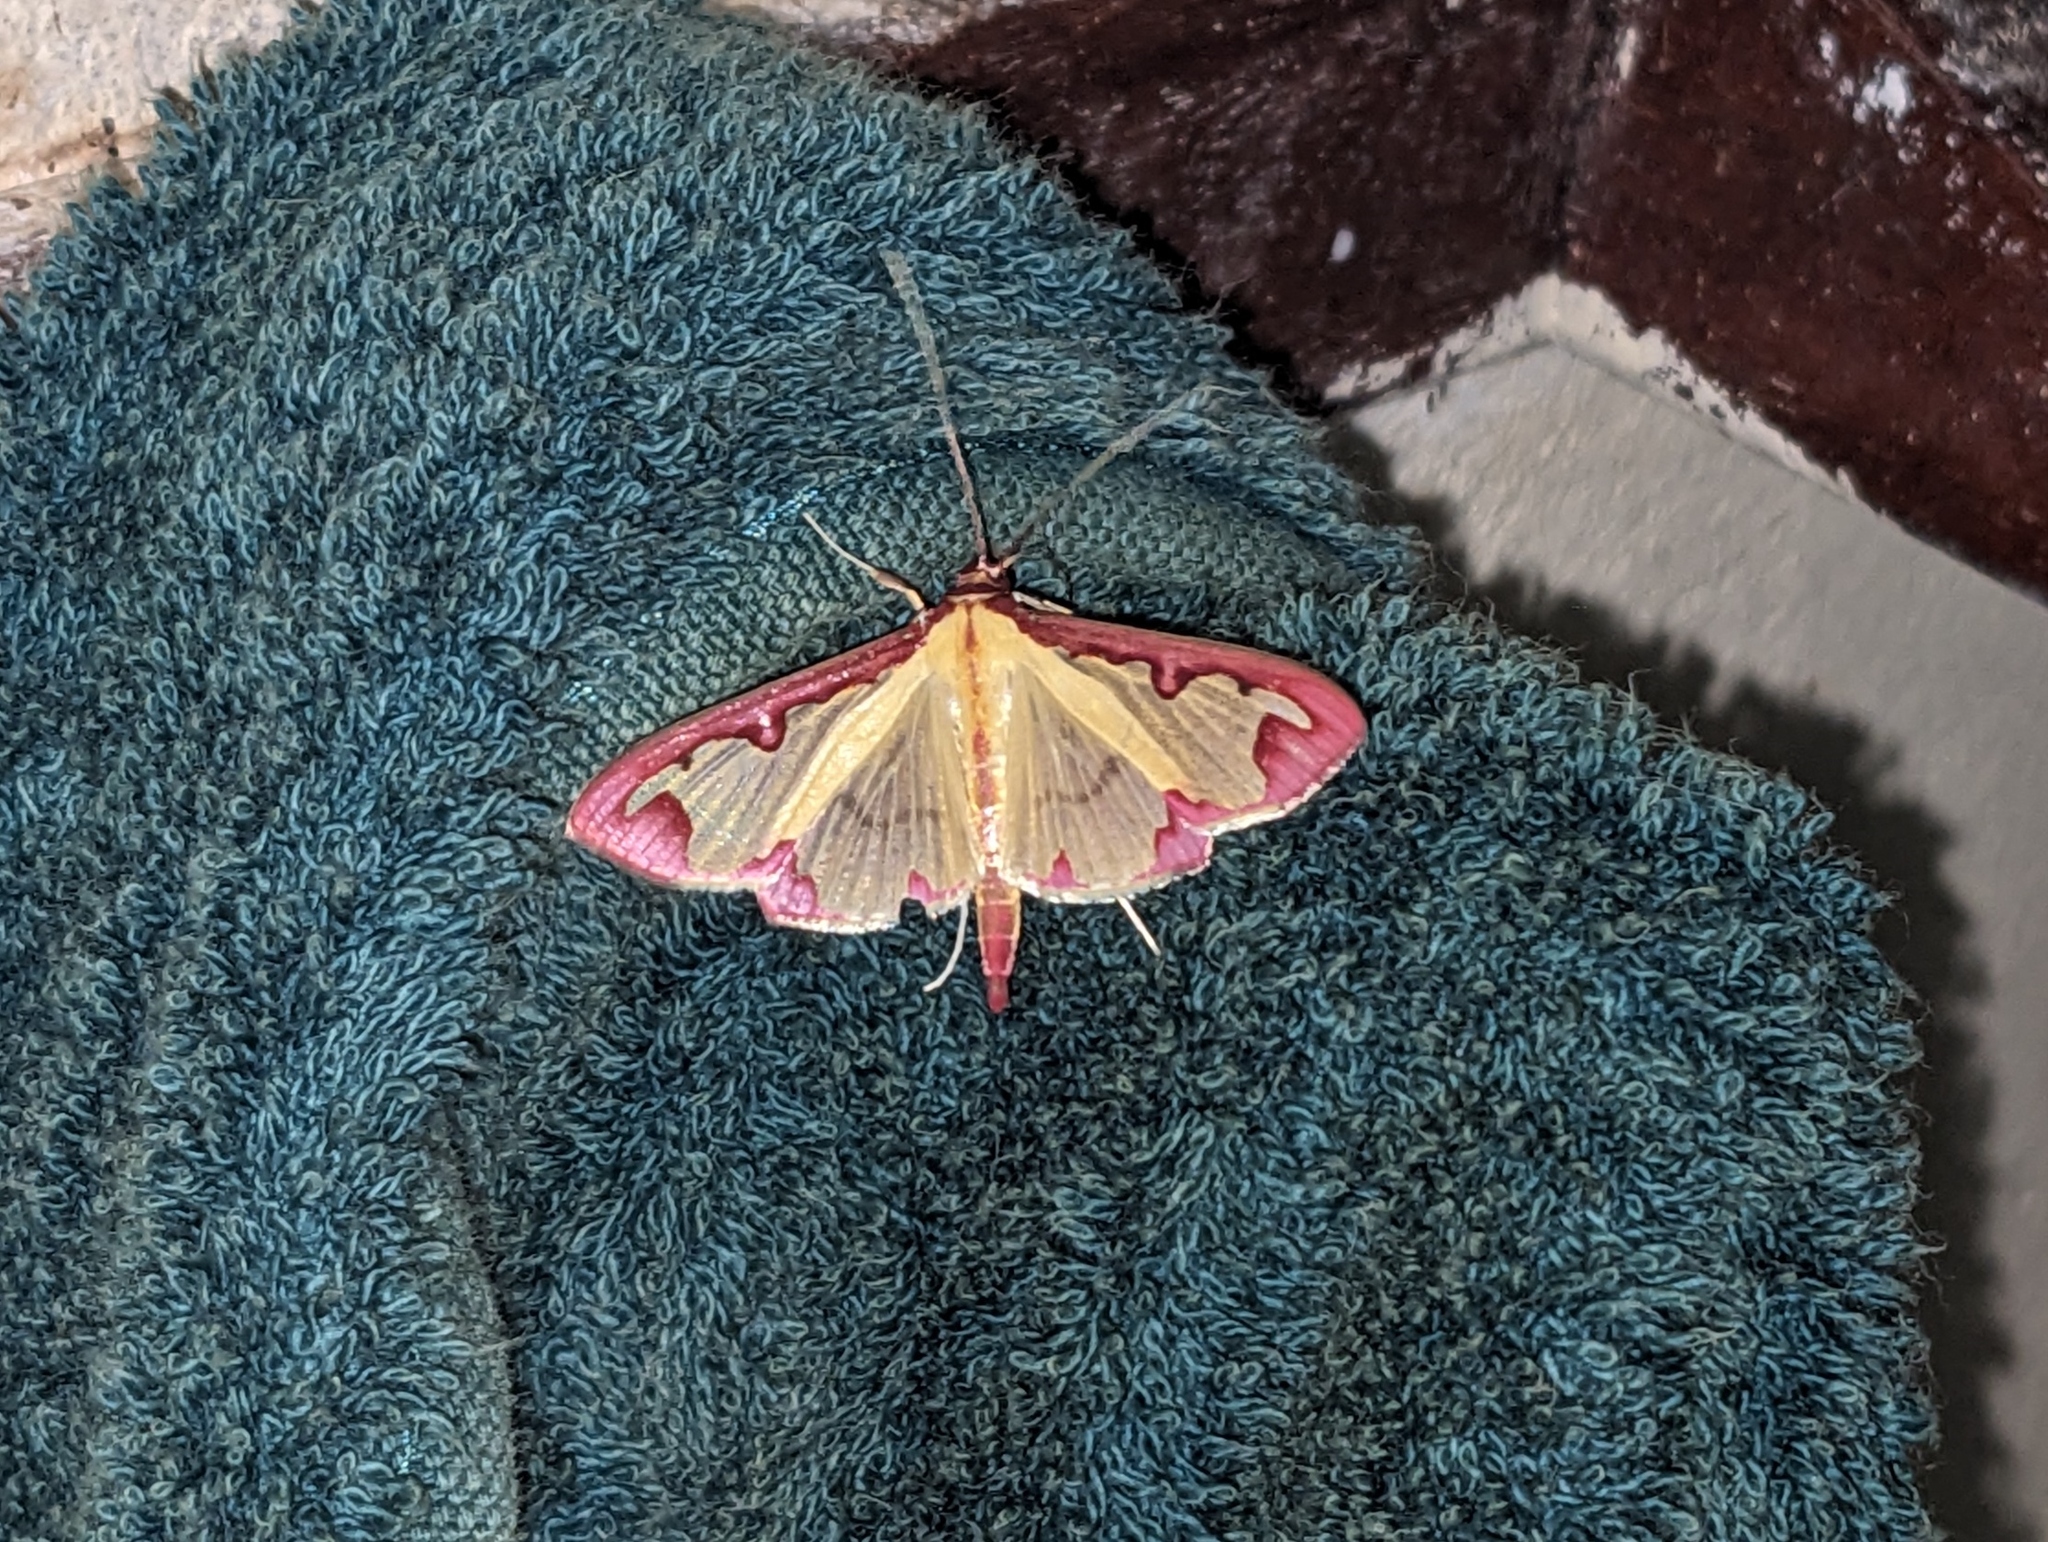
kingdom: Animalia
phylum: Arthropoda
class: Insecta
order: Lepidoptera
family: Crambidae
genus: Cadarena
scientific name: Cadarena pudoraria
